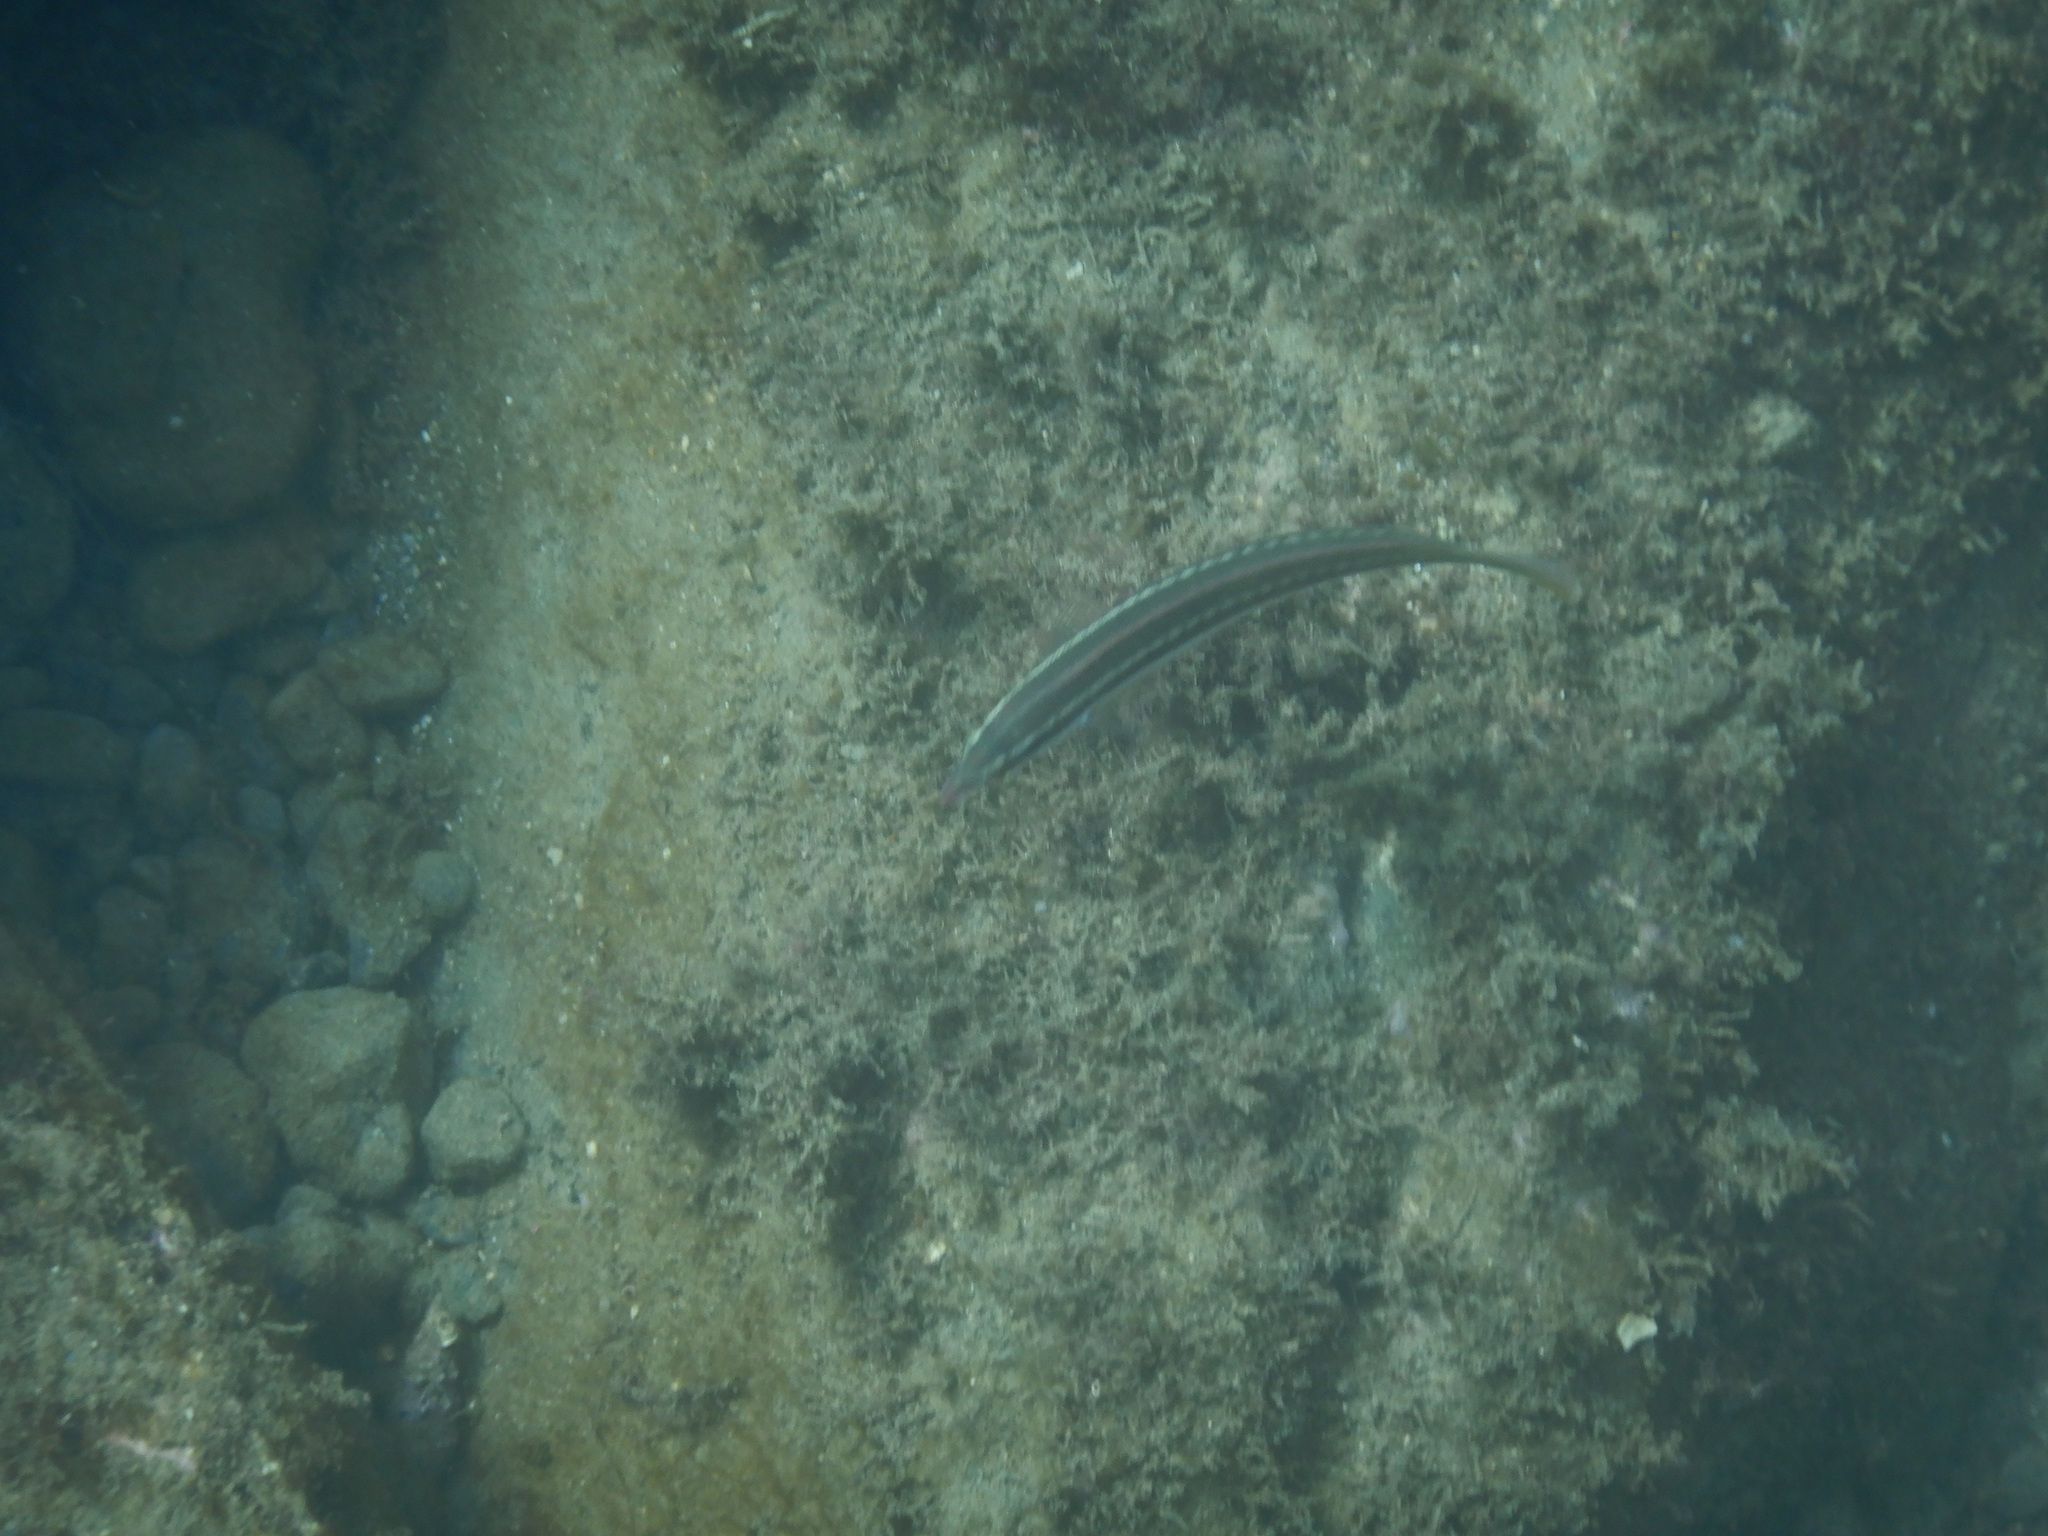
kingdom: Animalia
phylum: Chordata
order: Perciformes
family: Labridae
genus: Coris
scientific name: Coris julis
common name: Rainbow wrasse
